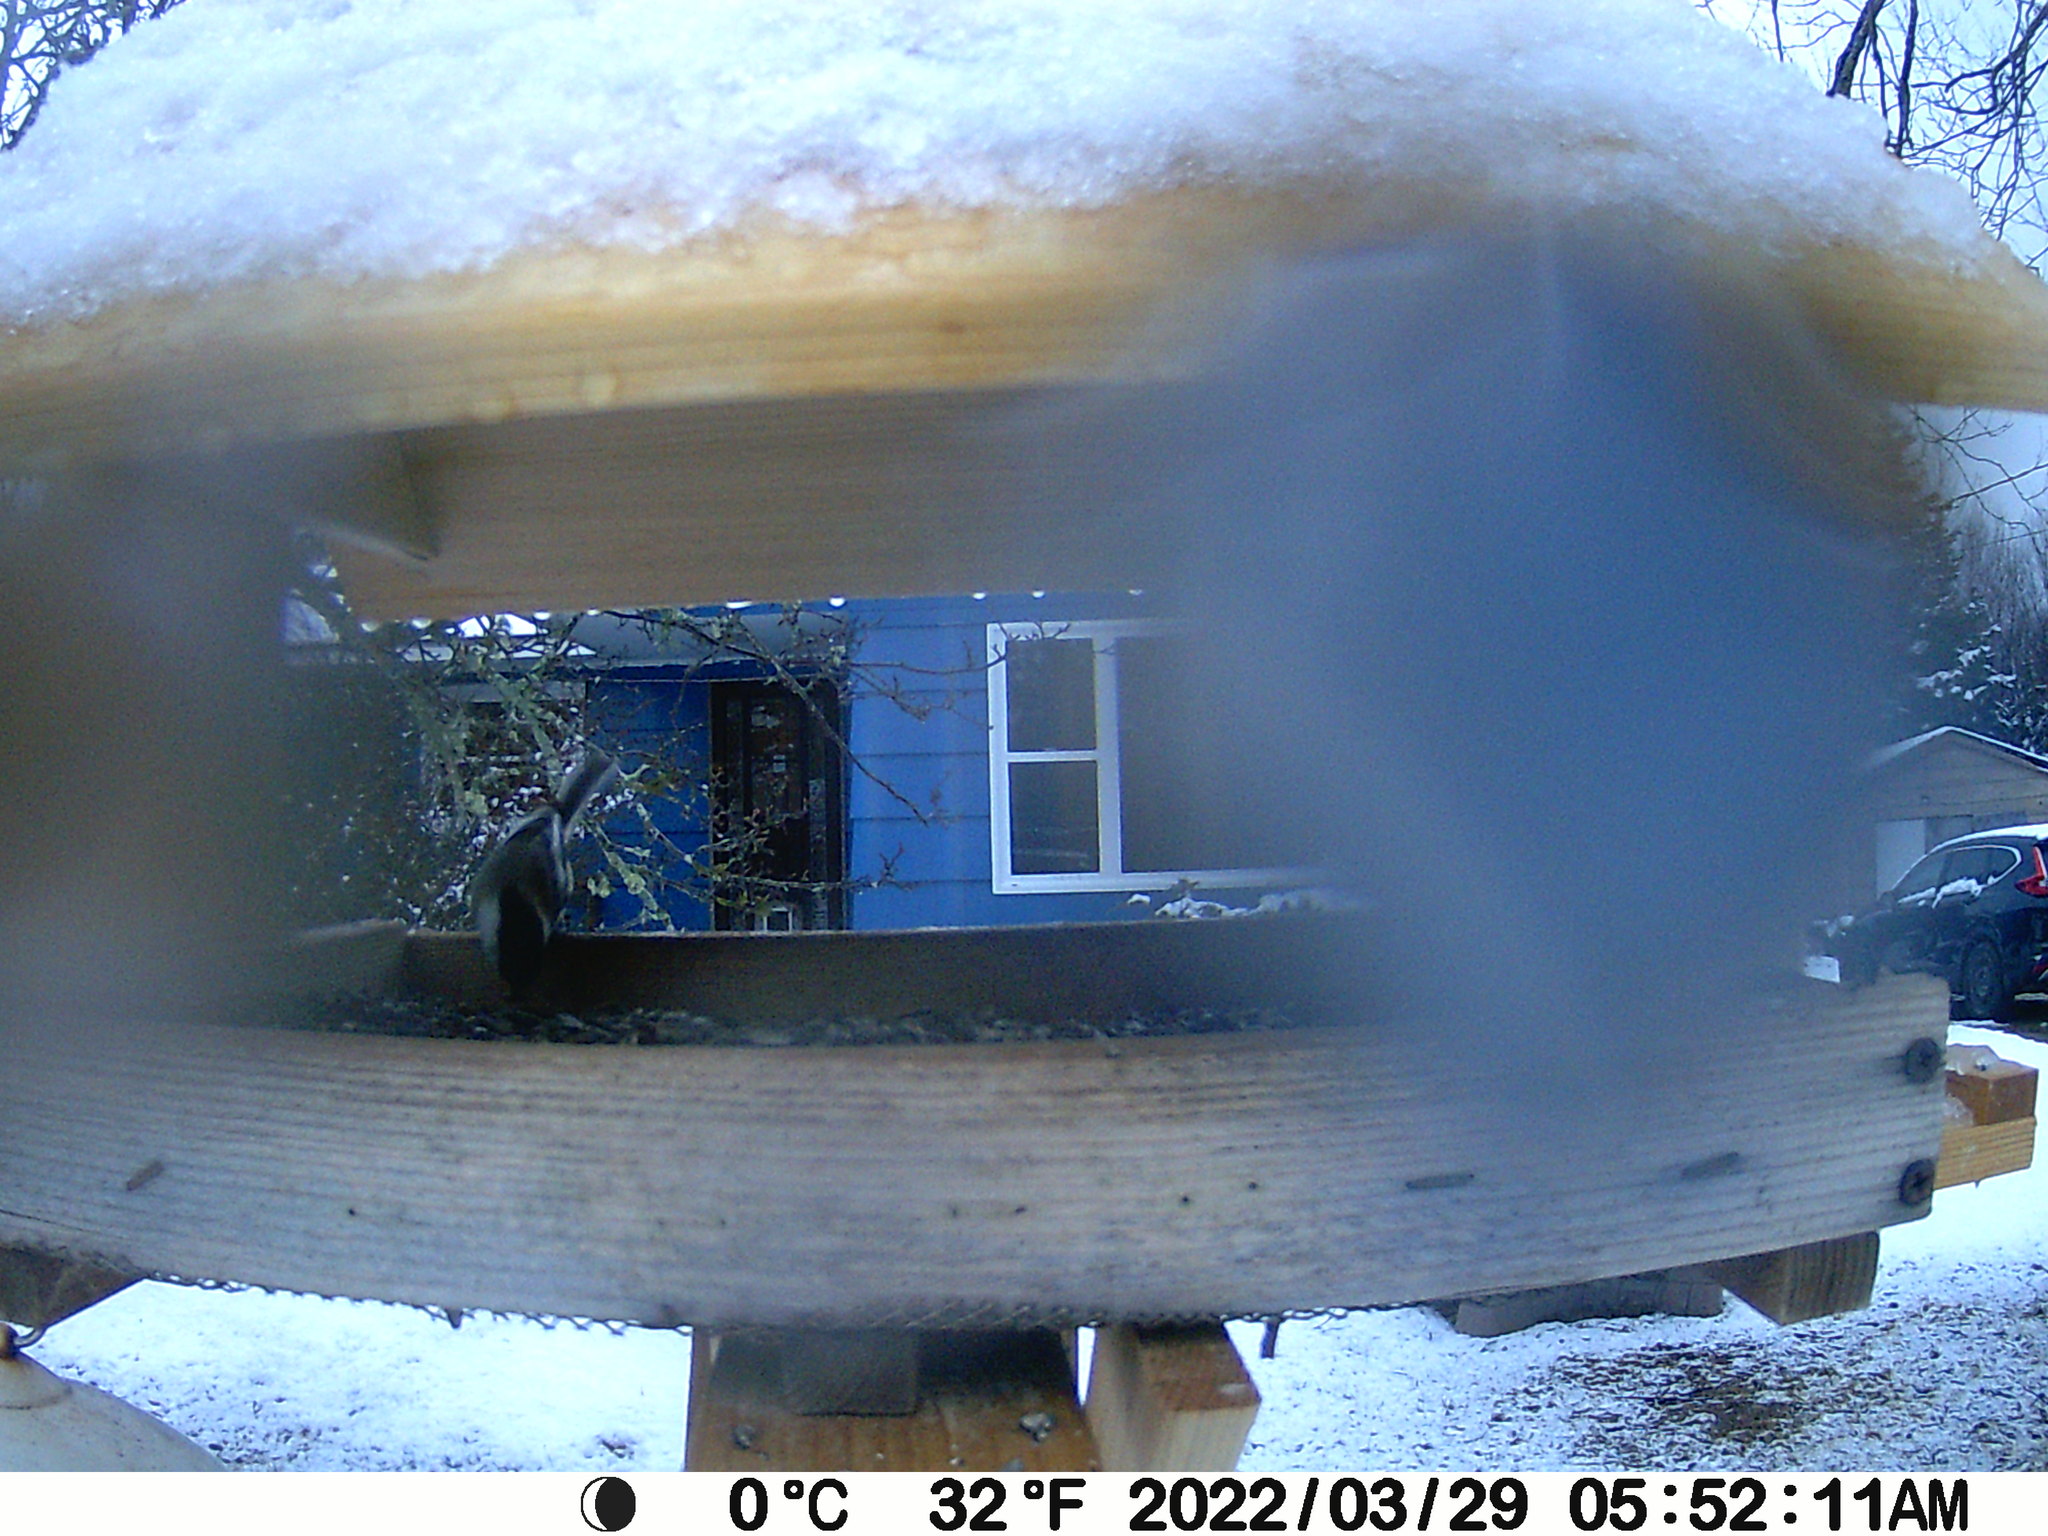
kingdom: Animalia
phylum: Chordata
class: Aves
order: Passeriformes
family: Paridae
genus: Poecile
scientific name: Poecile atricapillus
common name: Black-capped chickadee
